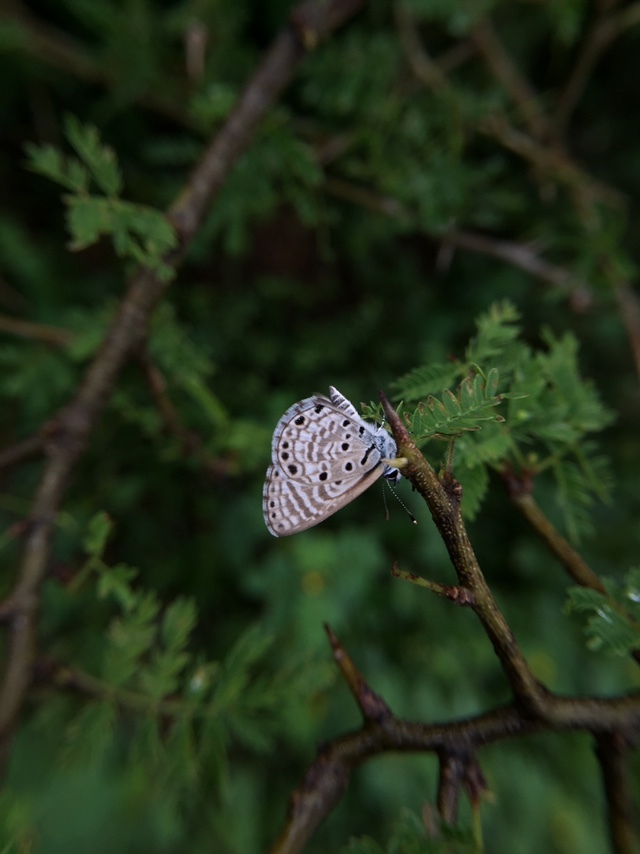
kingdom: Animalia
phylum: Arthropoda
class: Insecta
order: Lepidoptera
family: Lycaenidae
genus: Azanus
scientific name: Azanus jesous
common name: African babul blue
